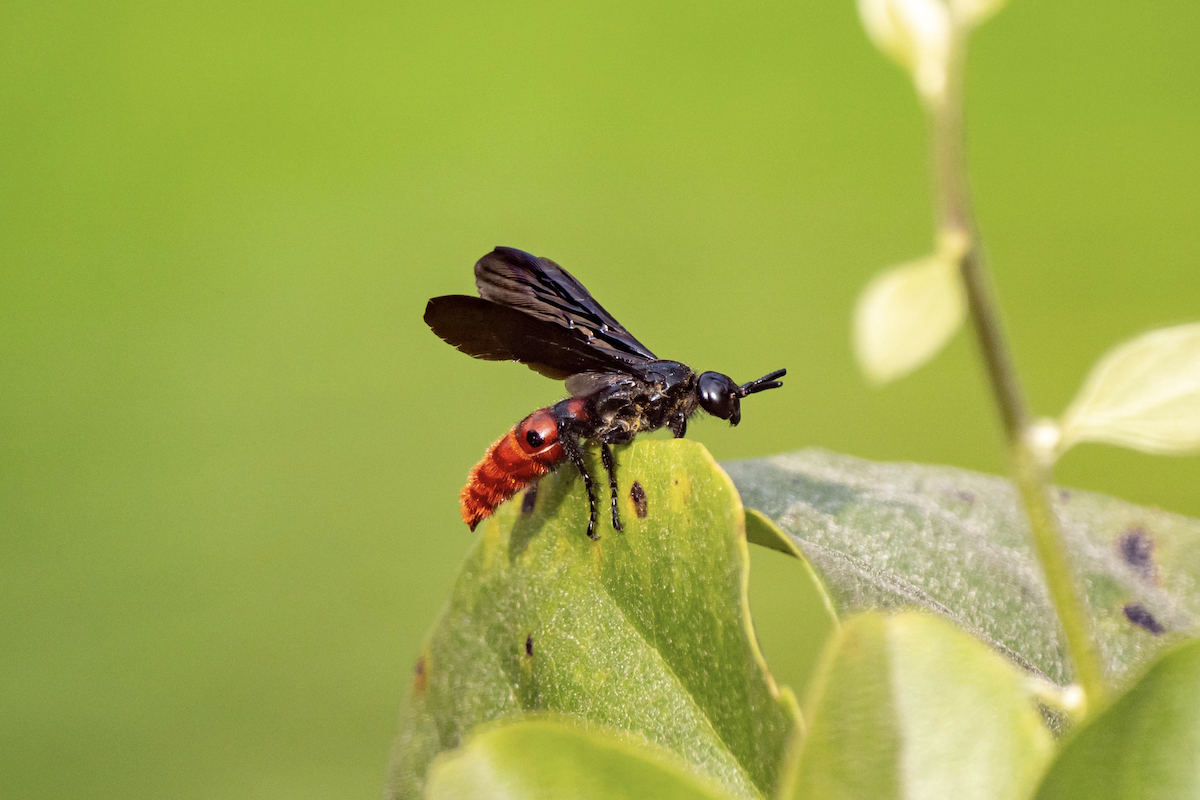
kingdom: Animalia
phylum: Arthropoda
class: Insecta
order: Hymenoptera
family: Scoliidae
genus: Liacos
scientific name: Liacos erythrosoma
